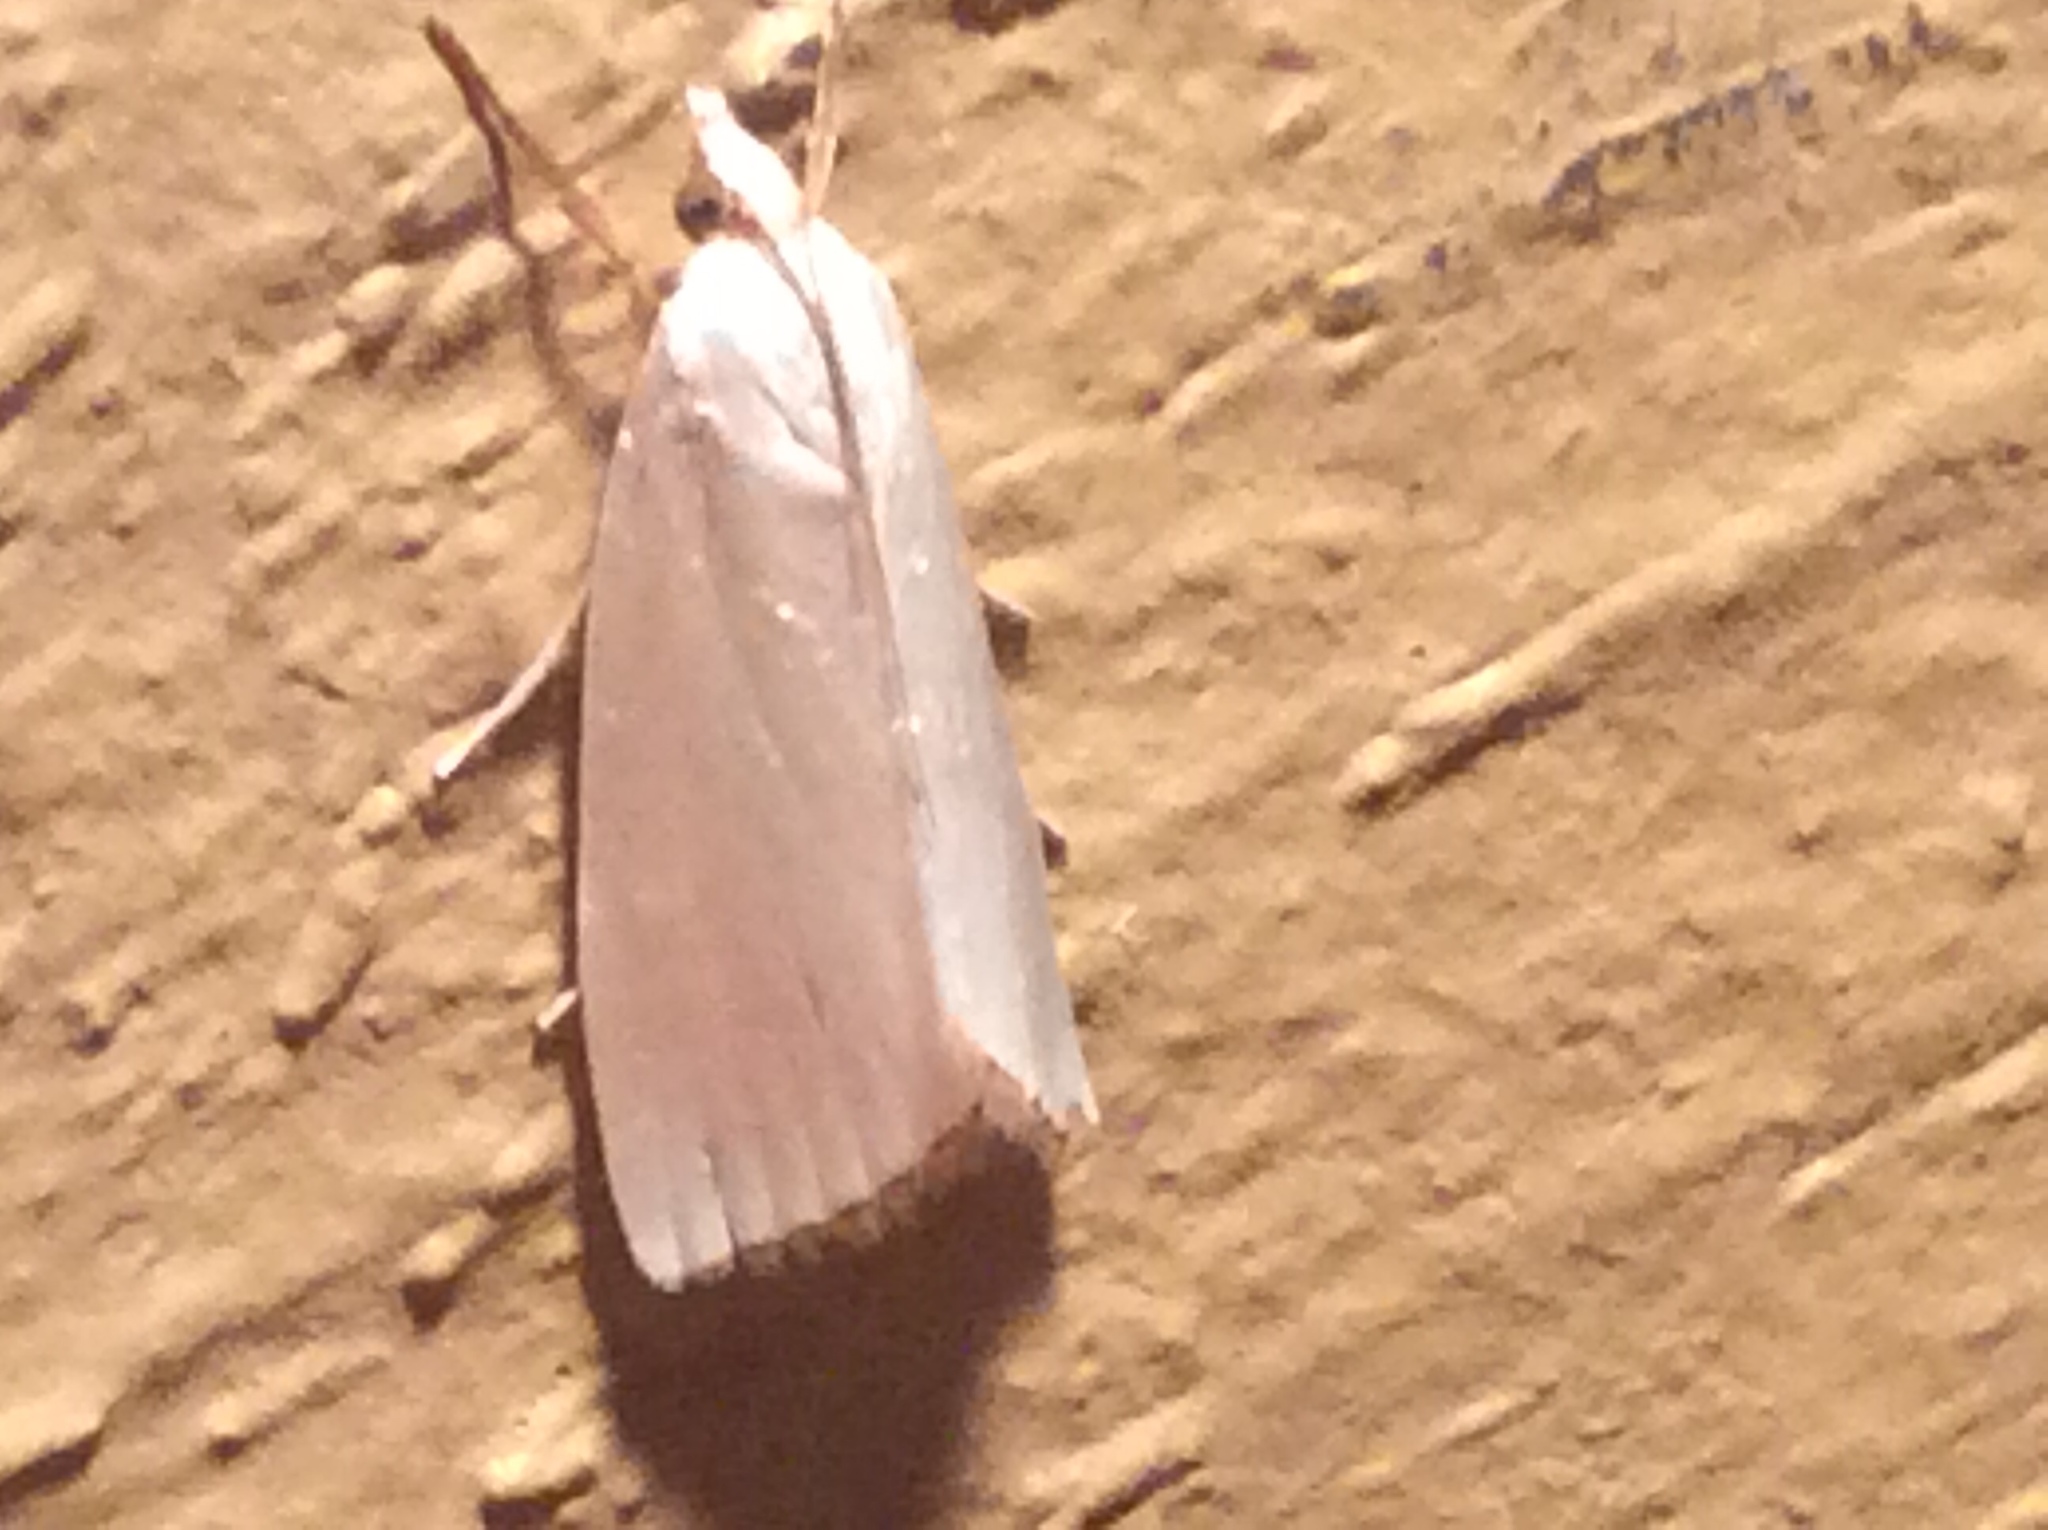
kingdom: Animalia
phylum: Arthropoda
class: Insecta
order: Lepidoptera
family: Crambidae
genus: Argyria
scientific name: Argyria nivalis
